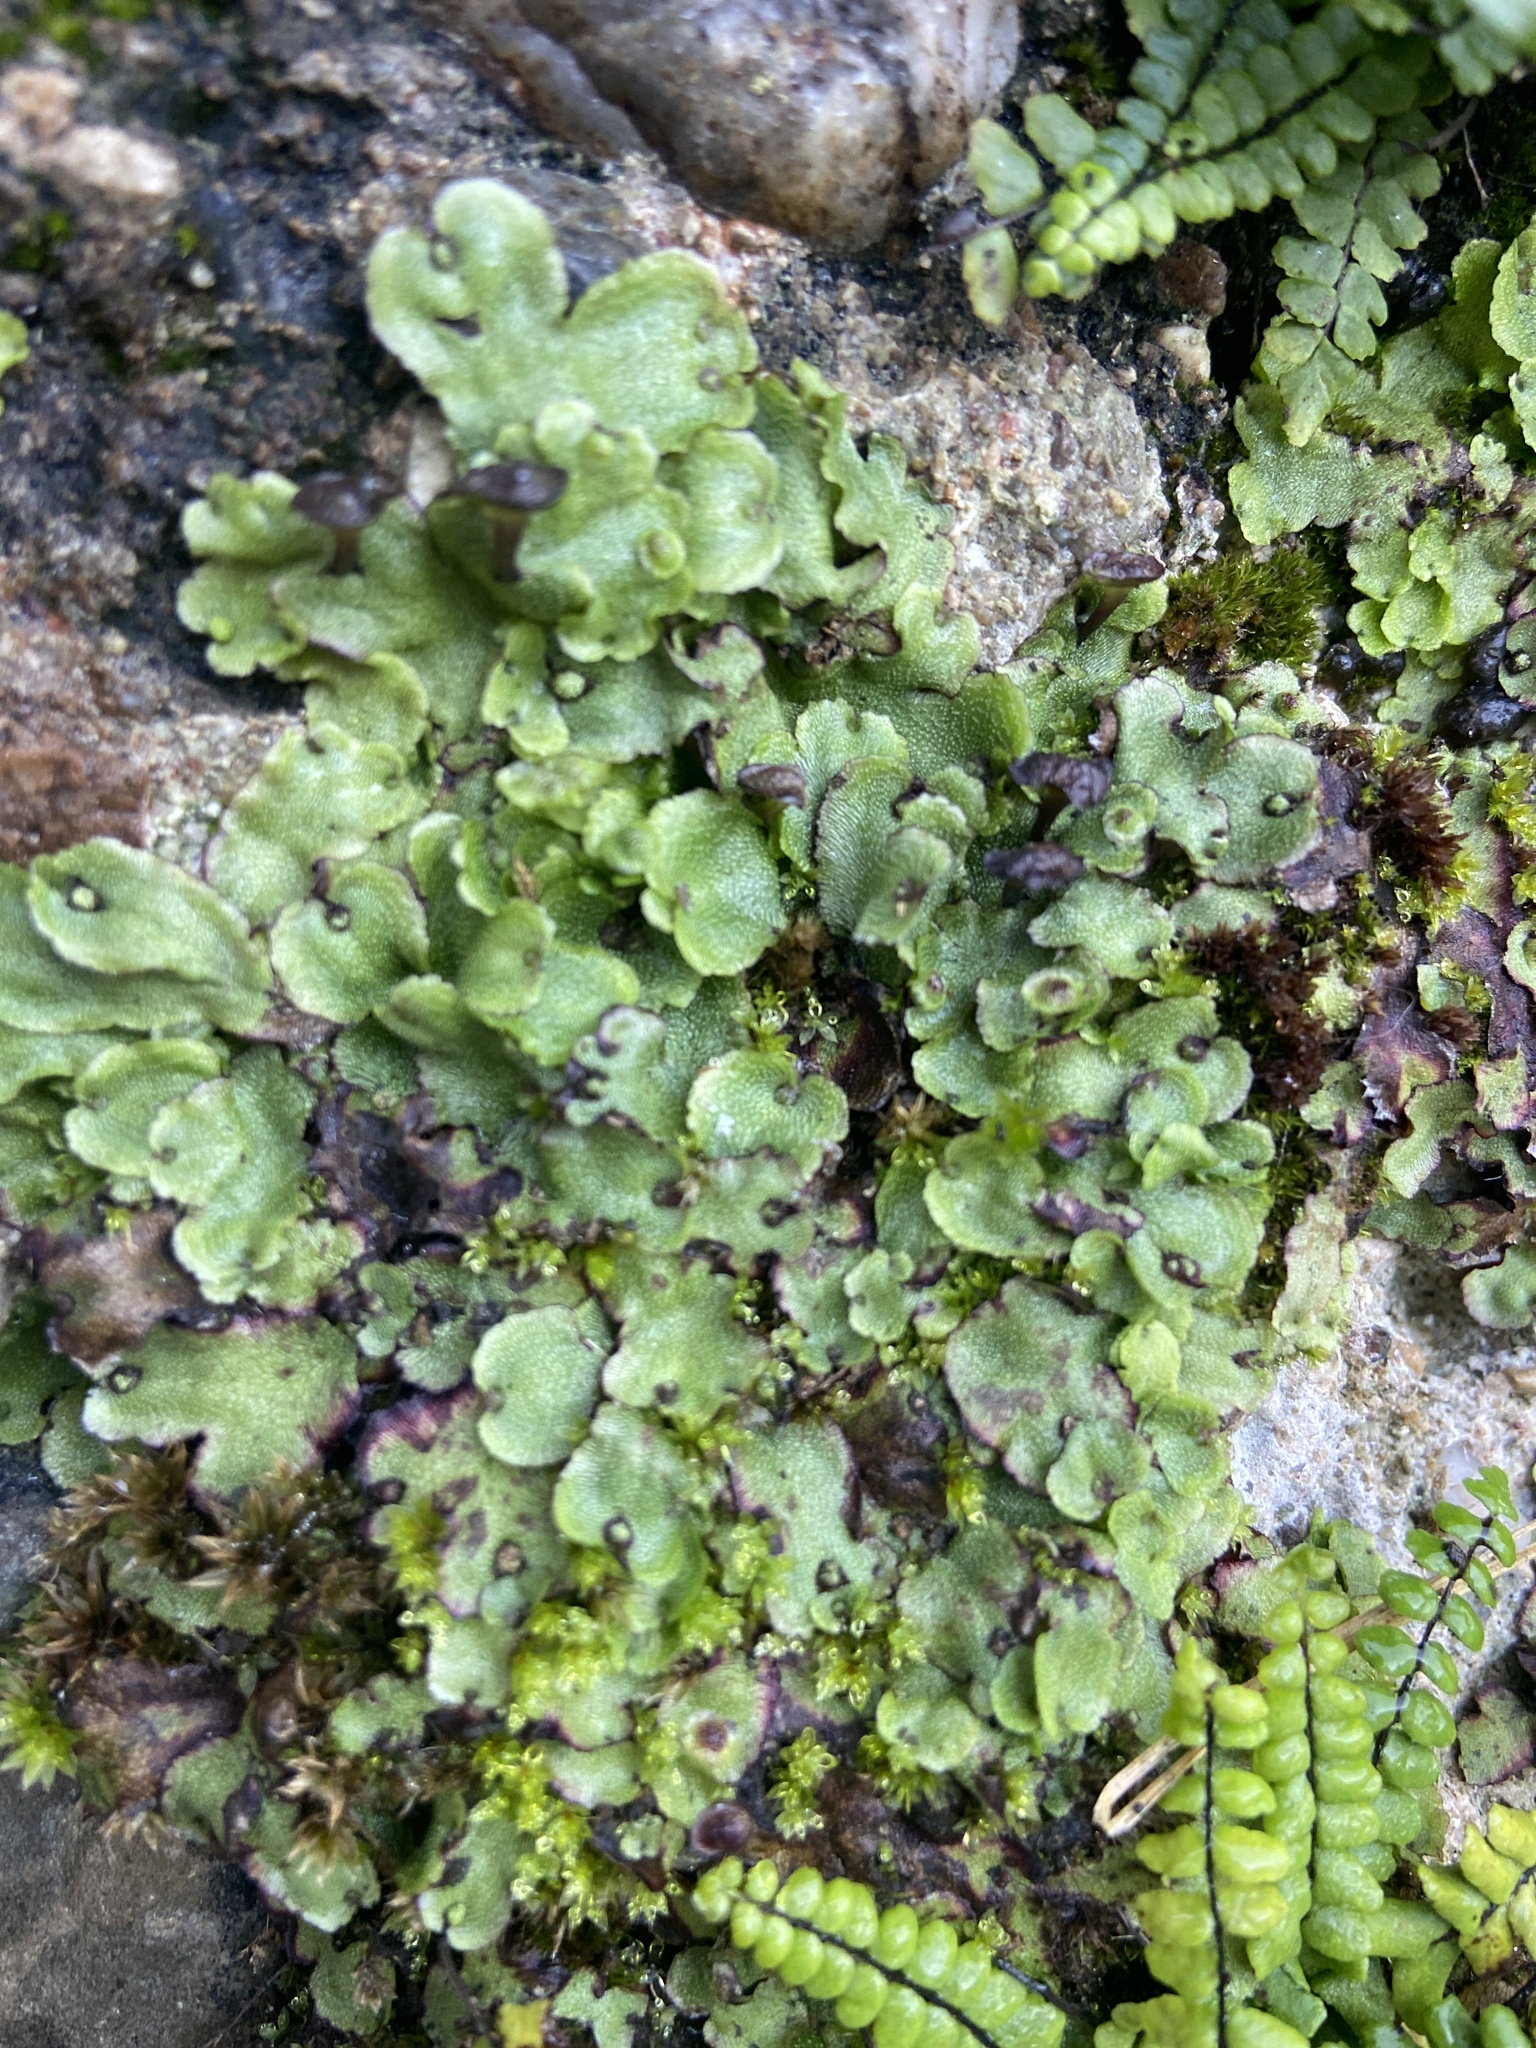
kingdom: Plantae
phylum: Marchantiophyta
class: Marchantiopsida
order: Marchantiales
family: Marchantiaceae
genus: Marchantia
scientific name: Marchantia quadrata
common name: Narrow mushroom-headed liverwort
